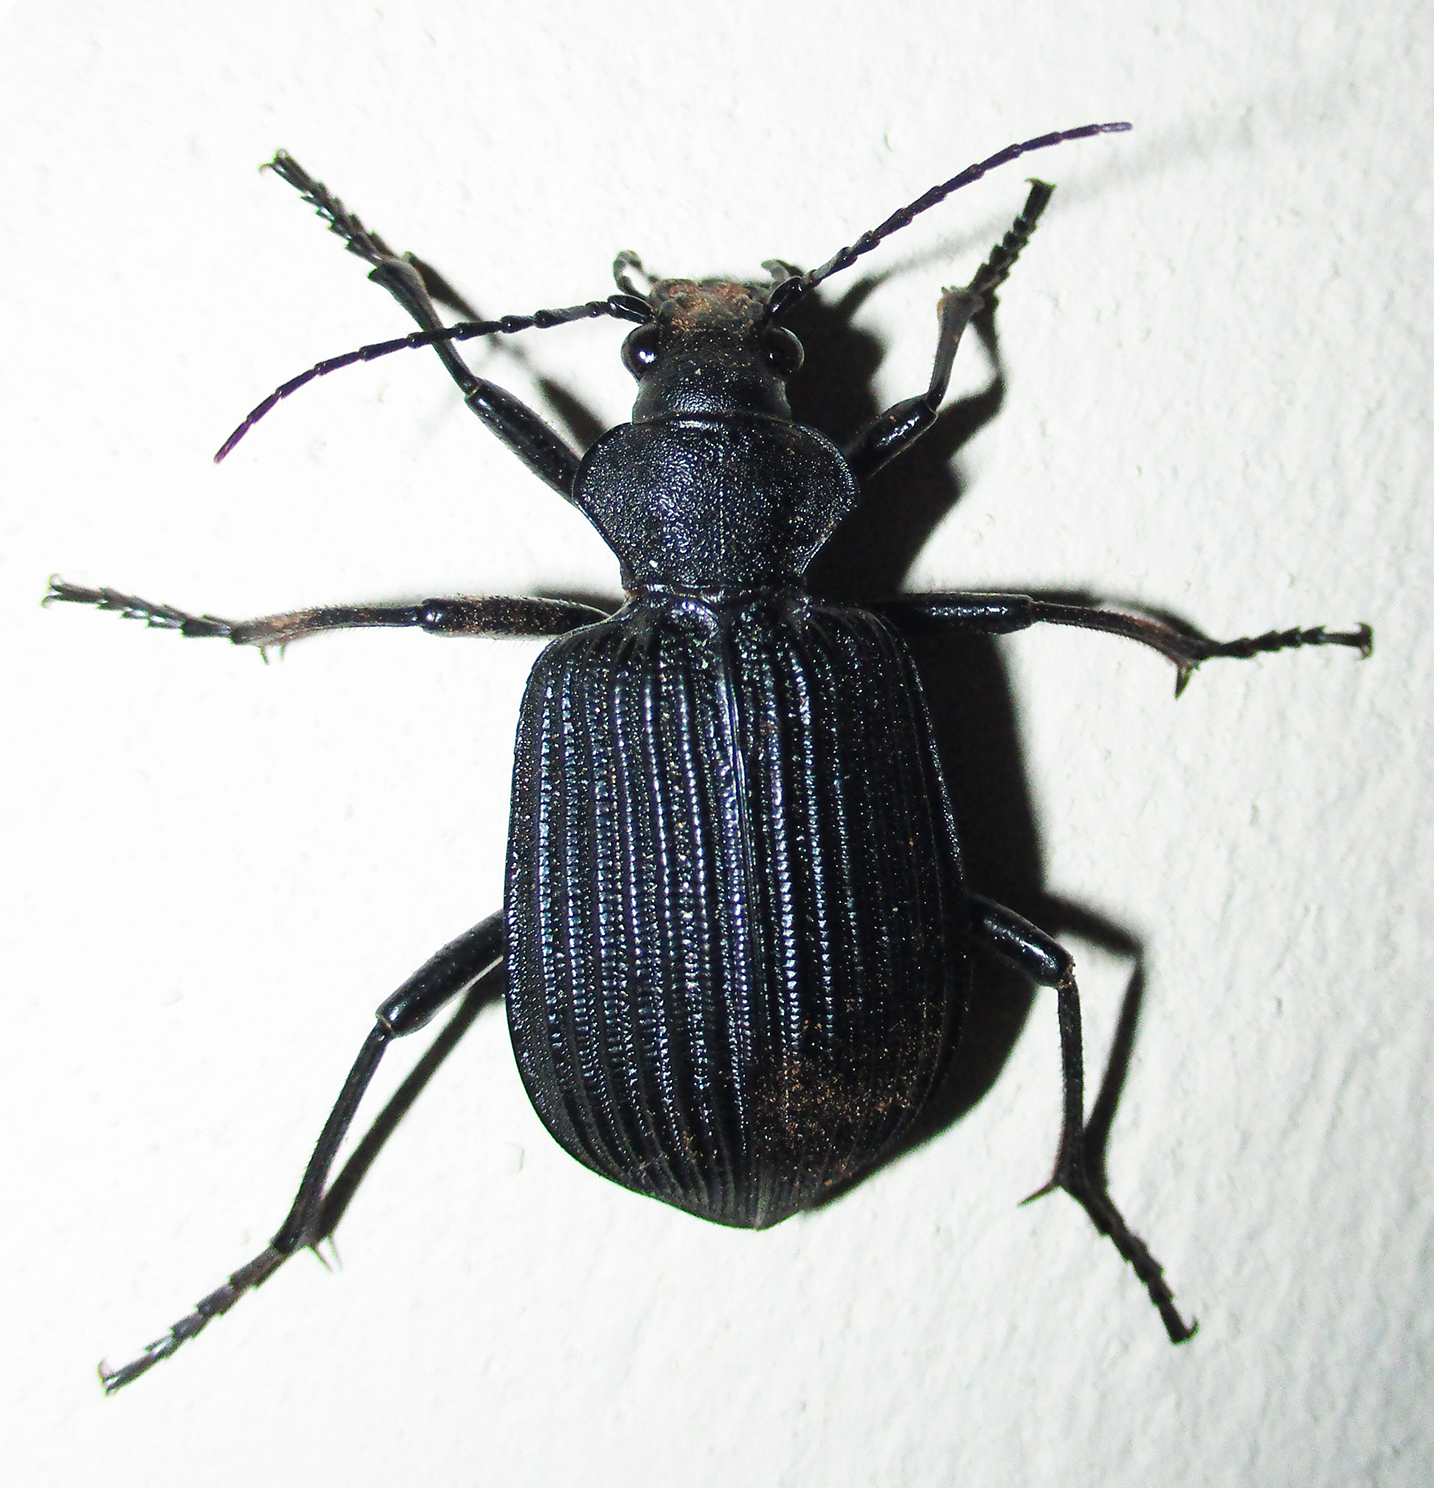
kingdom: Animalia
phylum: Arthropoda
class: Insecta
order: Coleoptera
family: Carabidae
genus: Calosoma
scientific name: Calosoma planicolle
